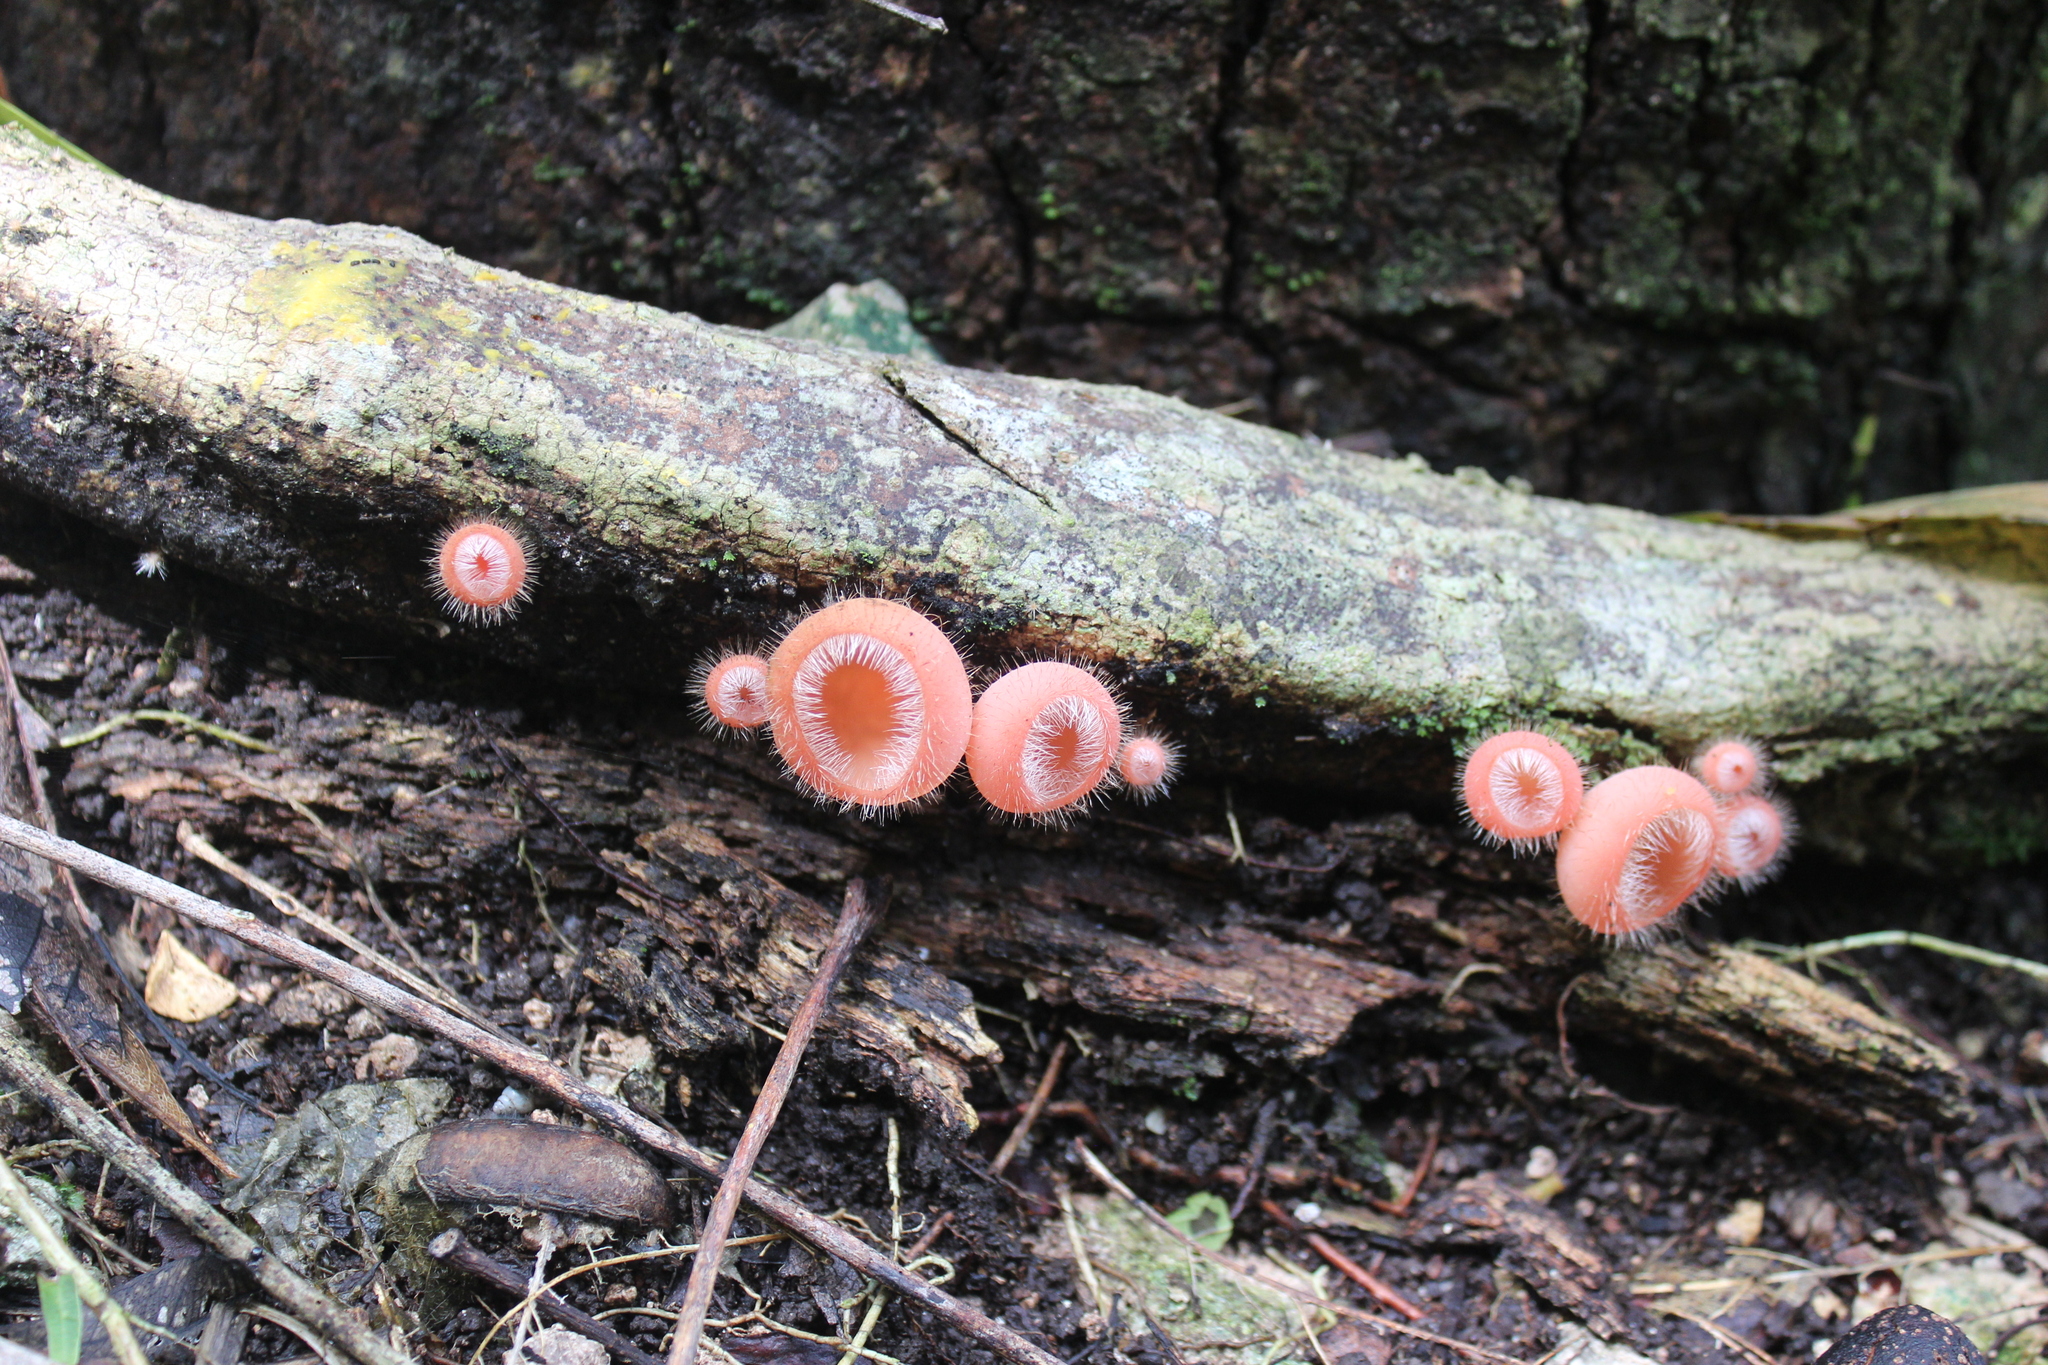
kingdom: Fungi
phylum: Ascomycota
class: Pezizomycetes
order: Pezizales
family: Sarcoscyphaceae
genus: Cookeina
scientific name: Cookeina tricholoma
